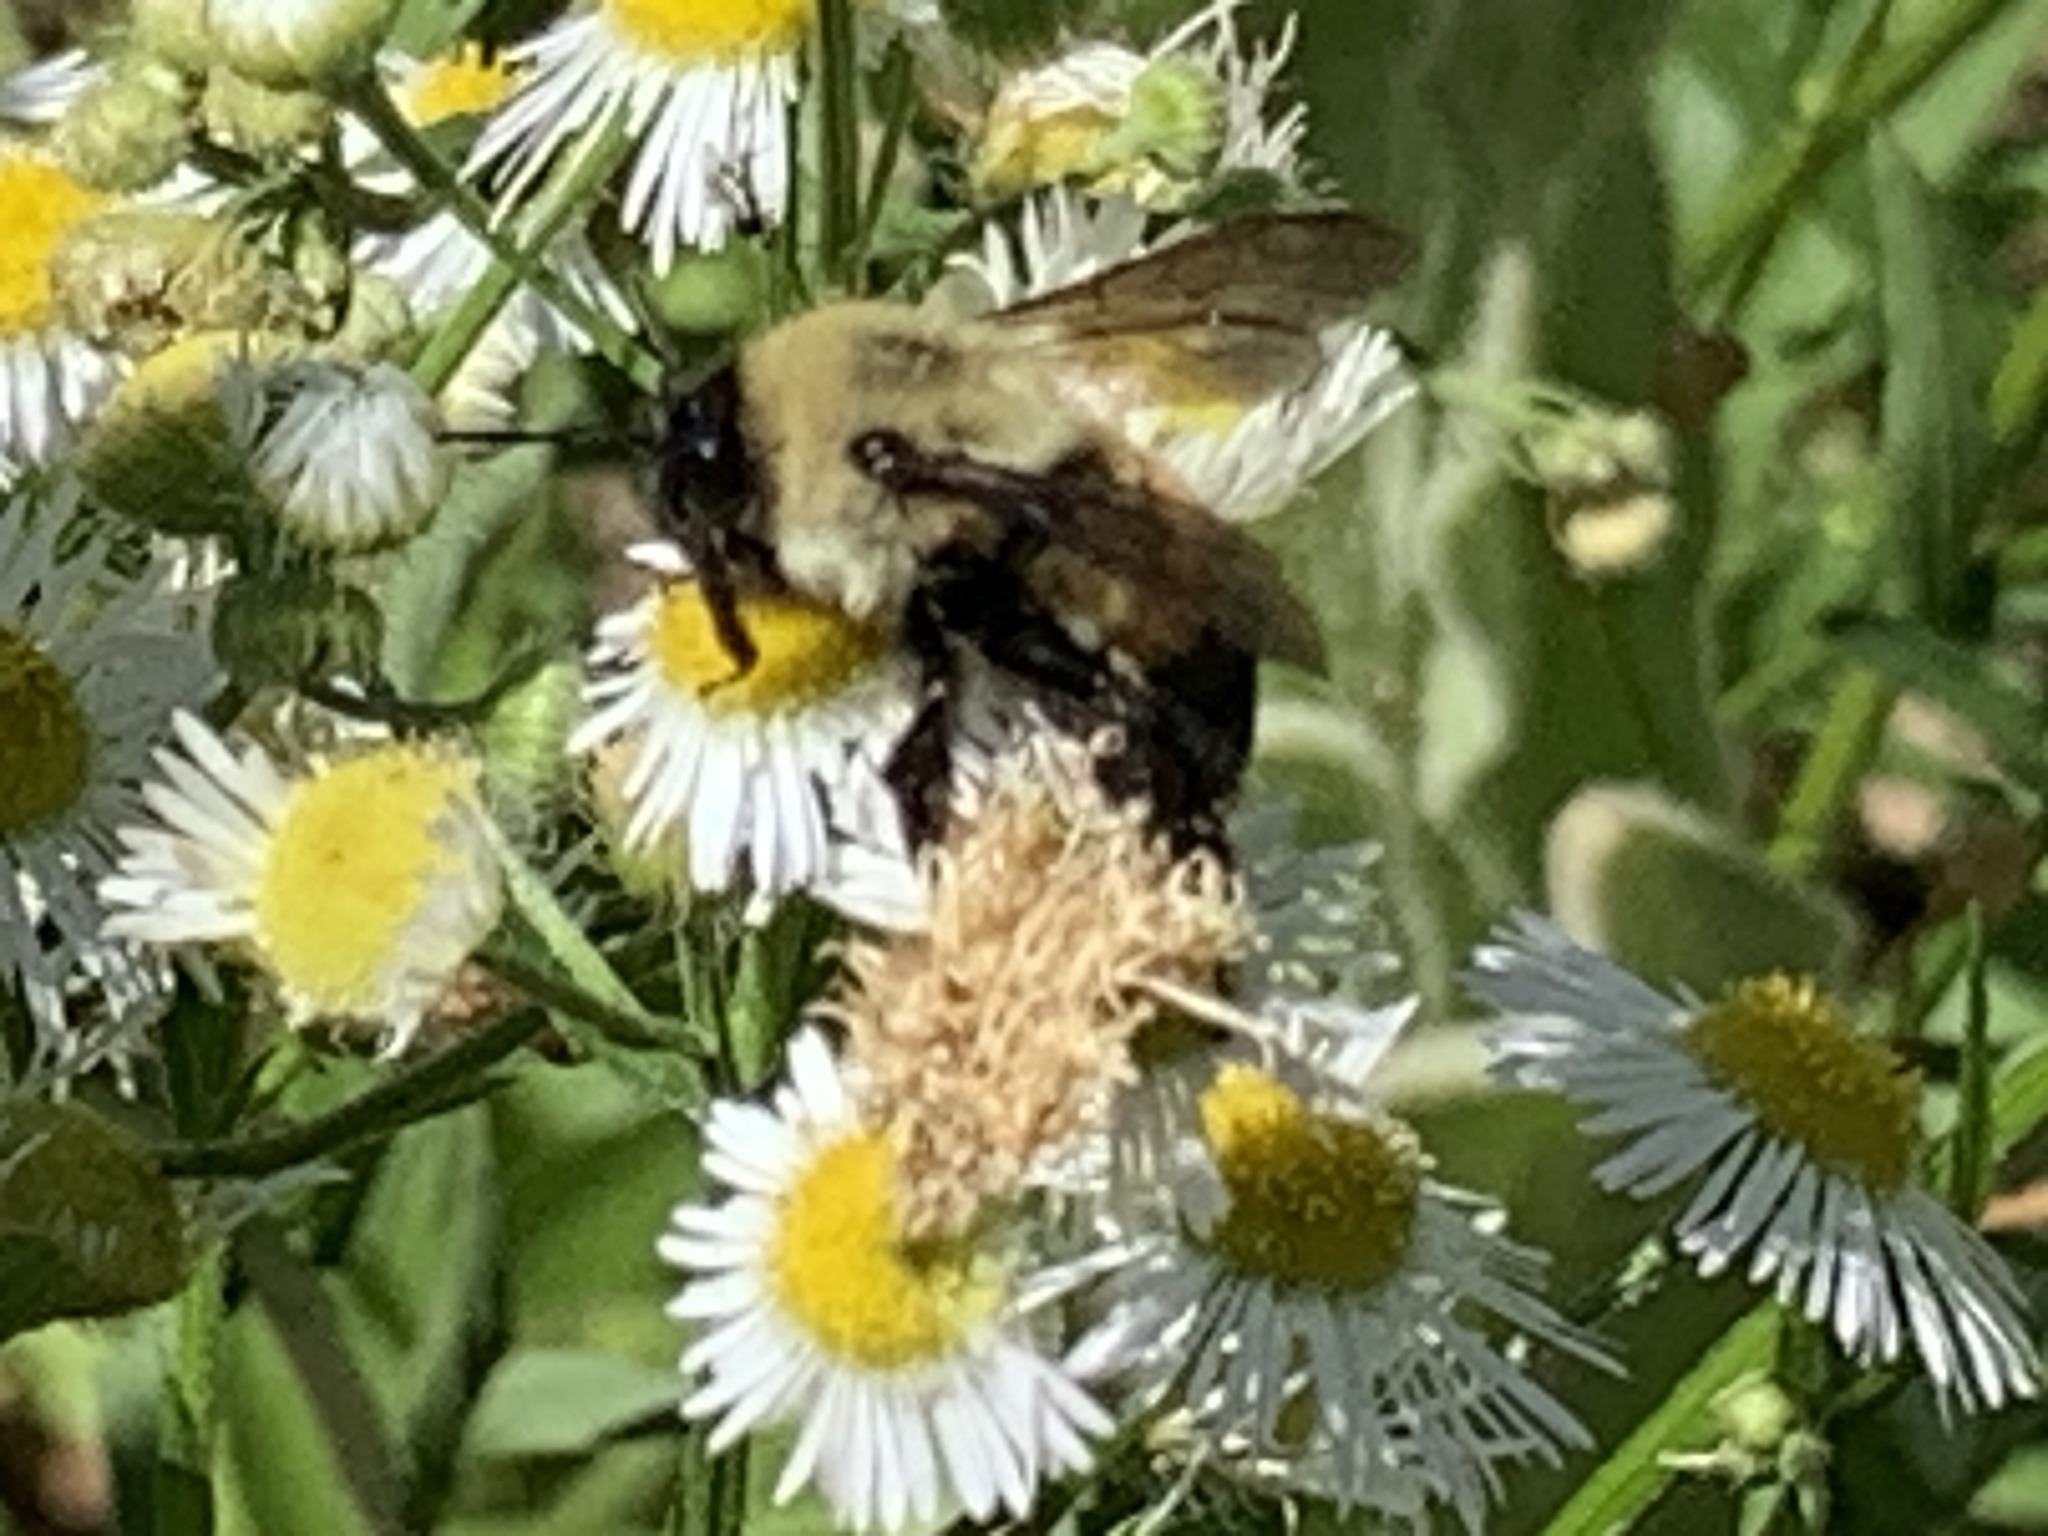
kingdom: Animalia
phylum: Arthropoda
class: Insecta
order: Hymenoptera
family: Apidae
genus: Bombus
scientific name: Bombus griseocollis
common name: Brown-belted bumble bee
